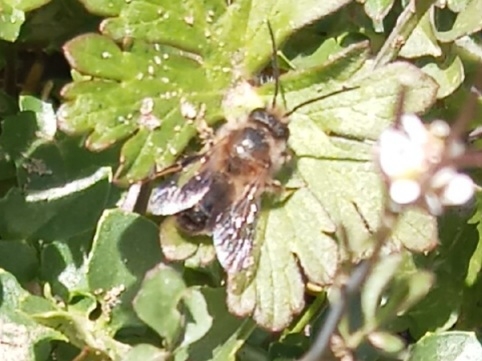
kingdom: Animalia
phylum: Arthropoda
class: Insecta
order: Hymenoptera
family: Megachilidae
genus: Osmia
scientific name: Osmia taurus
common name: Taurus mason bee
